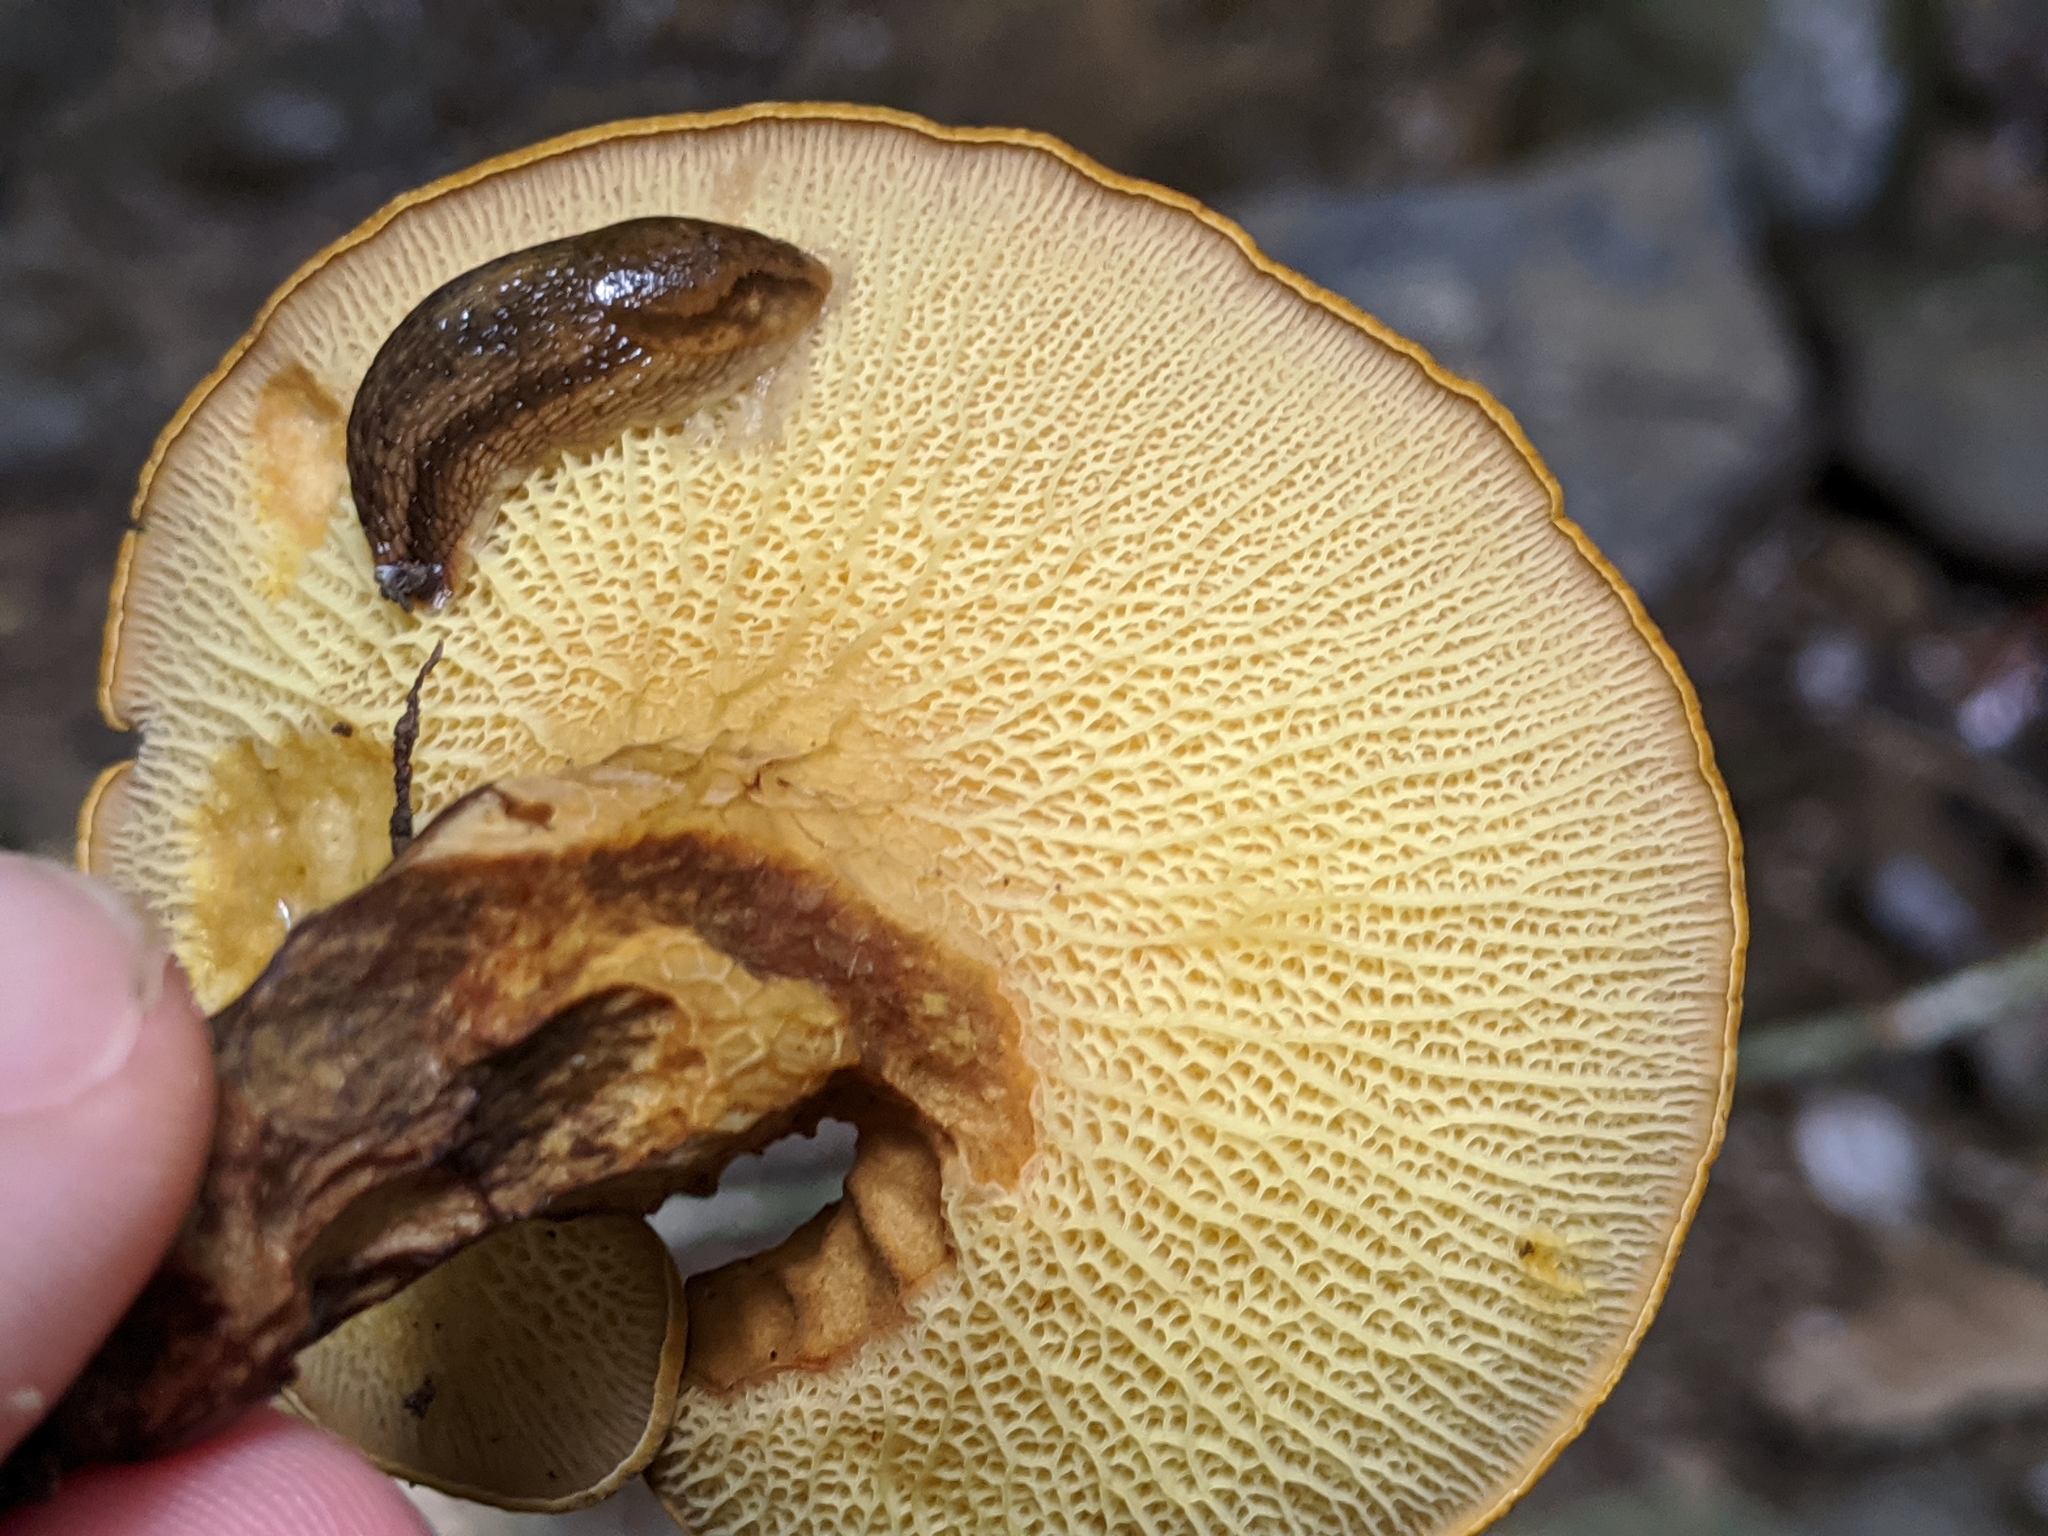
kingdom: Fungi
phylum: Basidiomycota
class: Agaricomycetes
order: Boletales
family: Boletinellaceae
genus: Boletinellus
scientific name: Boletinellus merulioides
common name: Ash tree bolete
